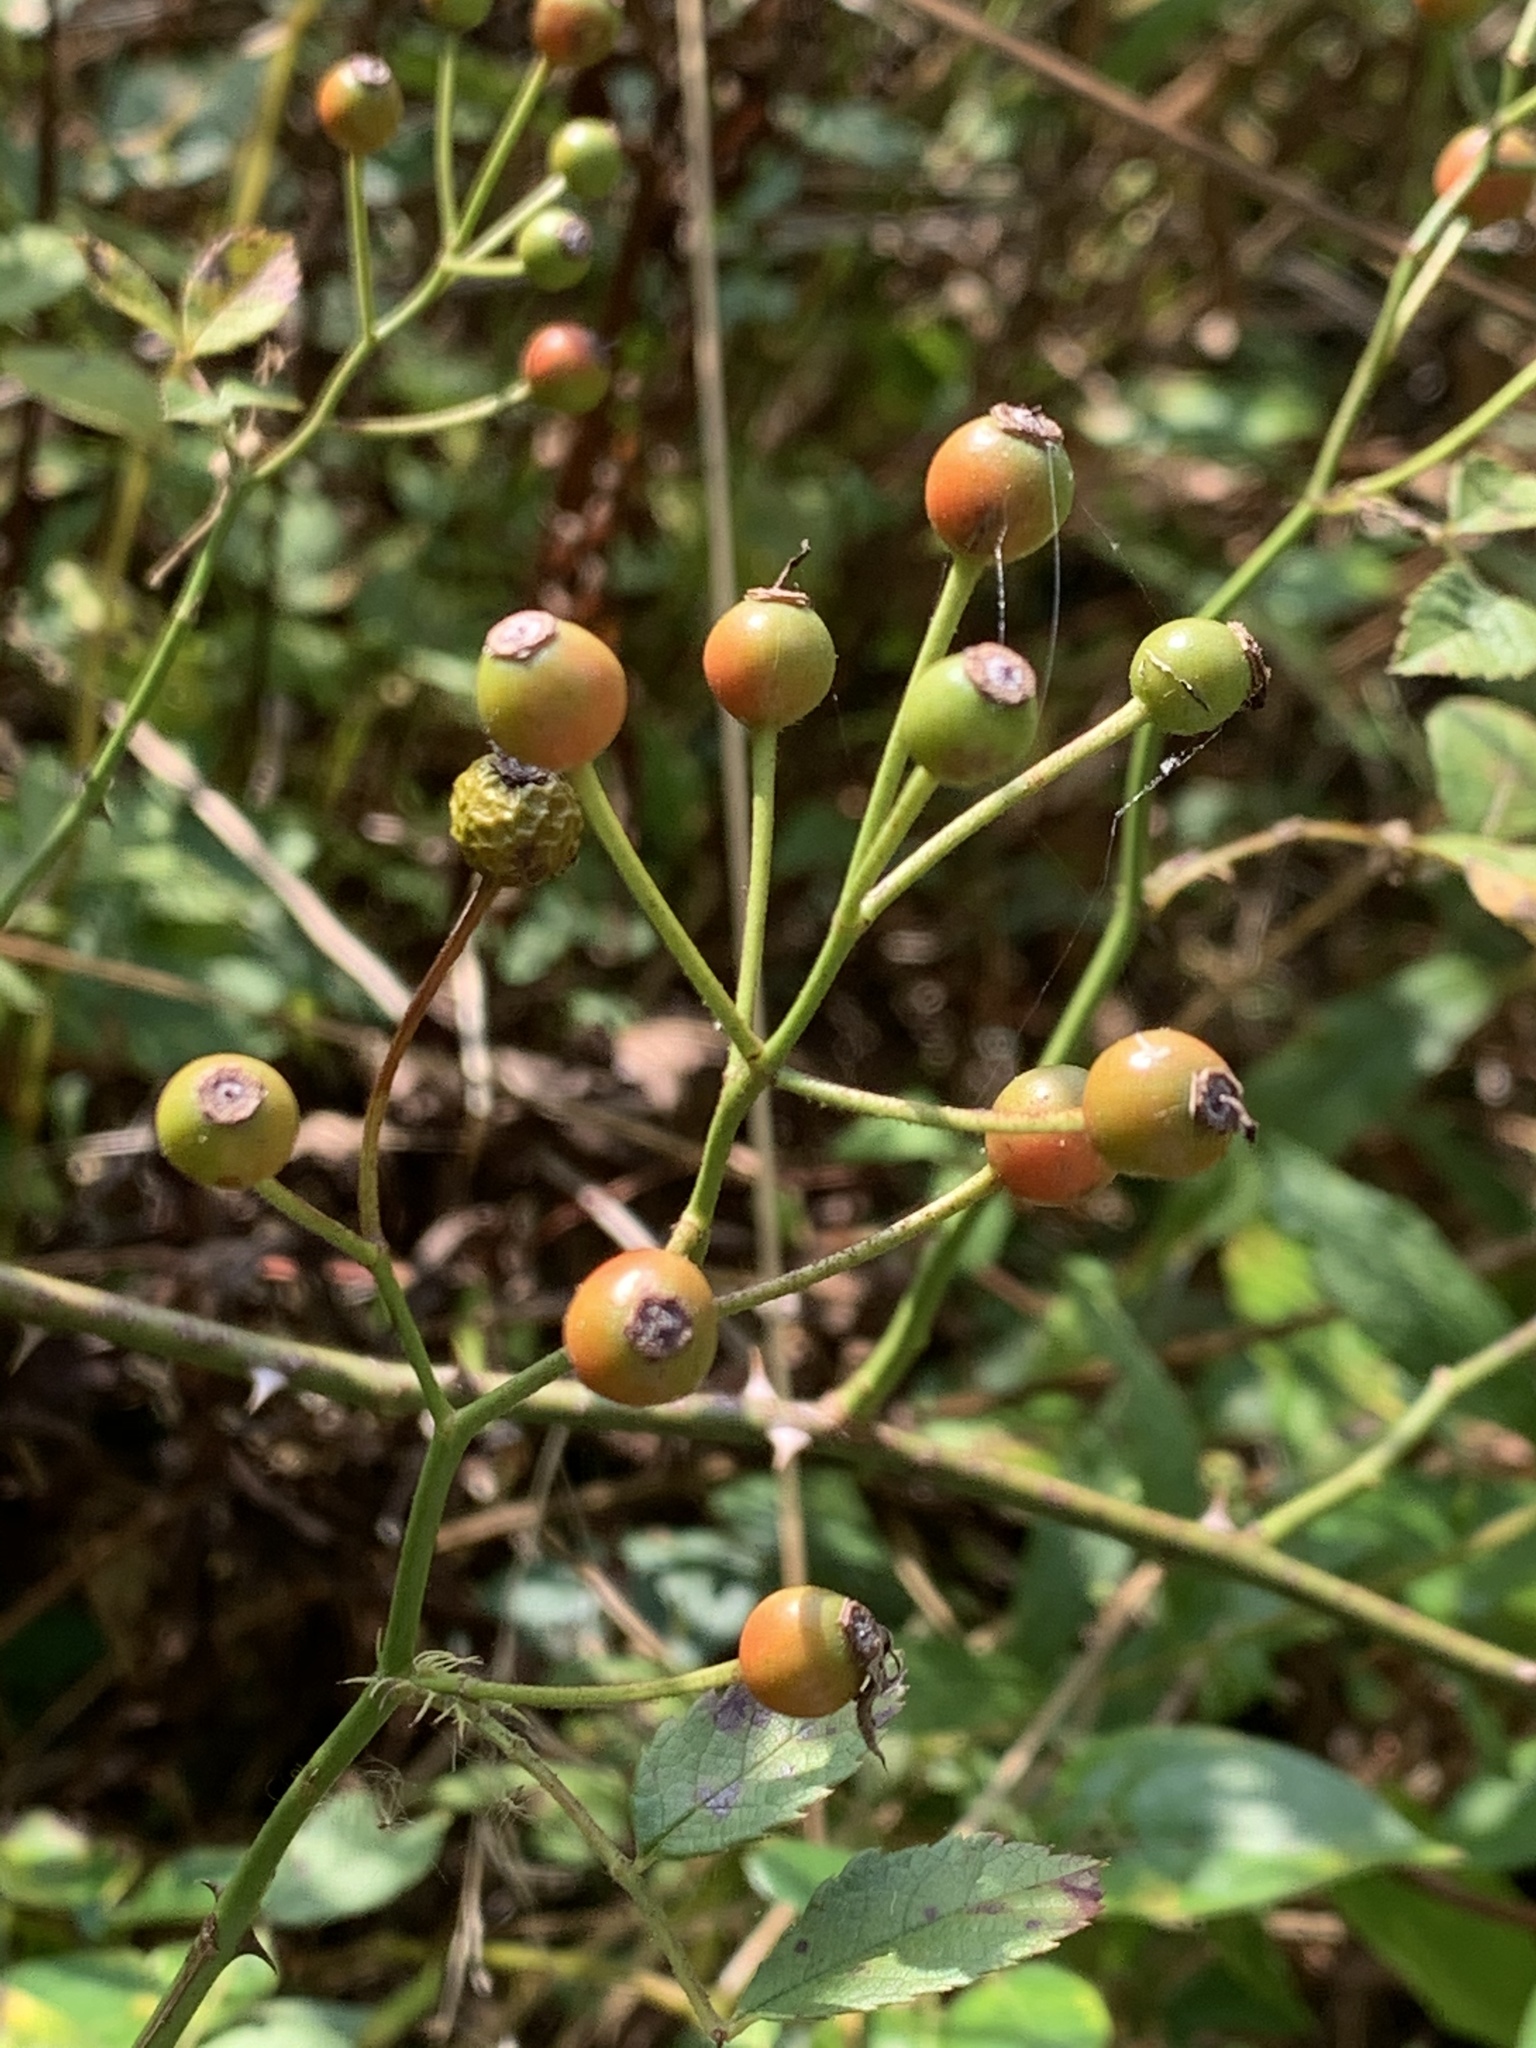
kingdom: Plantae
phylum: Tracheophyta
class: Magnoliopsida
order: Rosales
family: Rosaceae
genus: Rosa
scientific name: Rosa multiflora
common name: Multiflora rose
